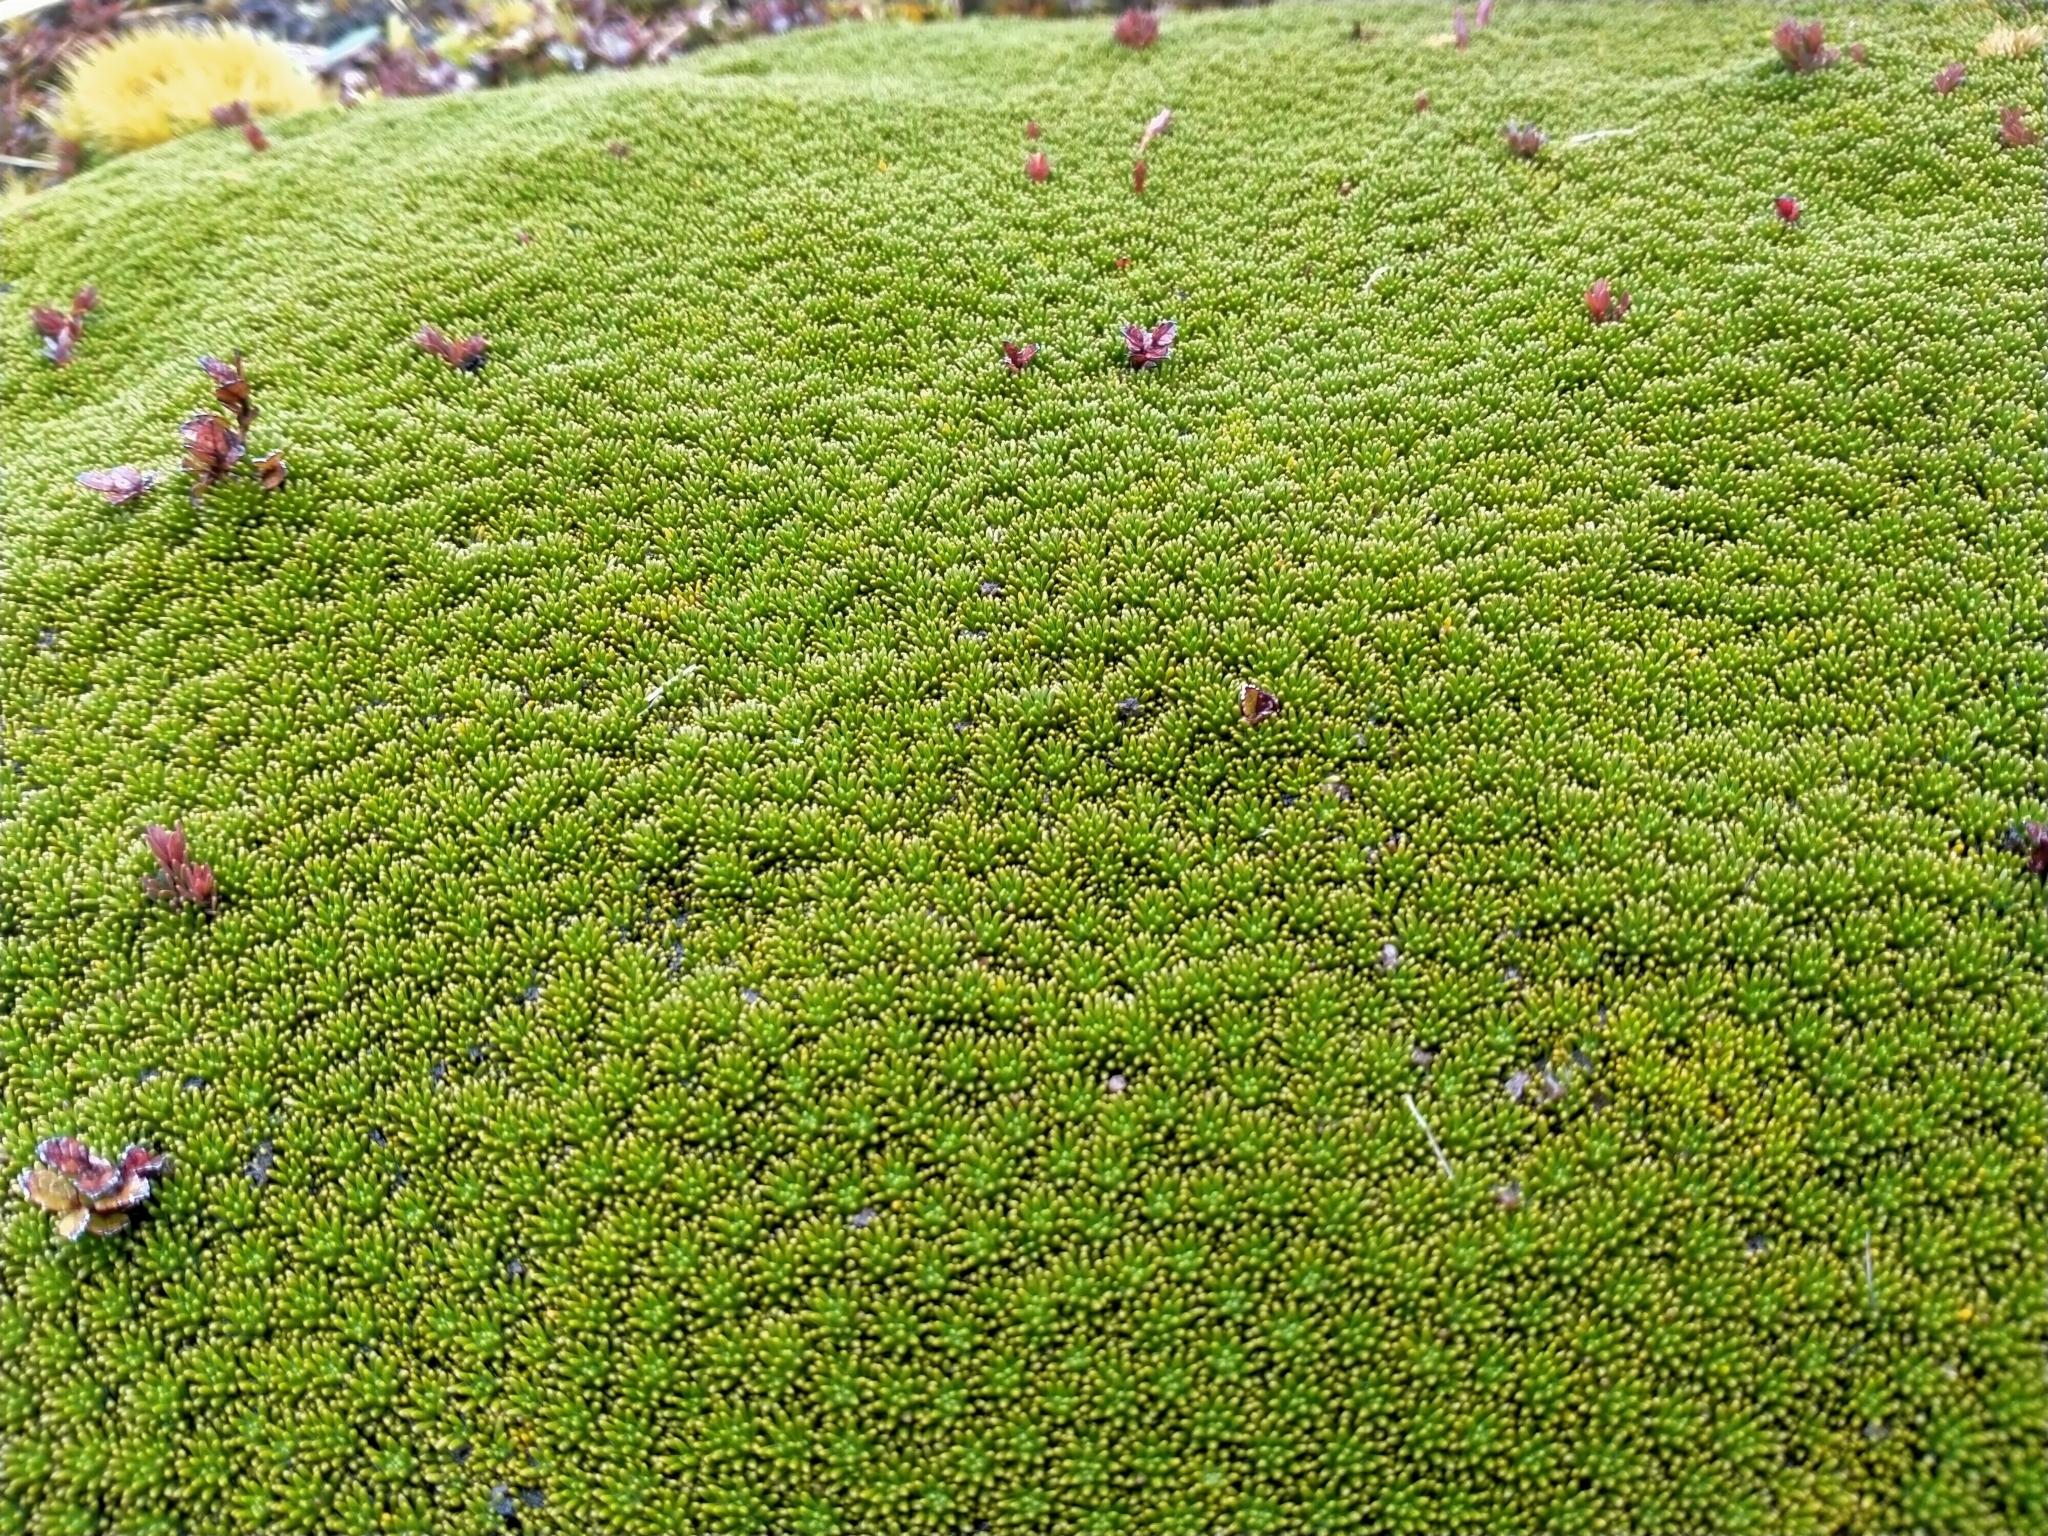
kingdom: Plantae
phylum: Tracheophyta
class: Magnoliopsida
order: Asterales
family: Stylidiaceae
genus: Phyllachne
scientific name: Phyllachne colensoi
